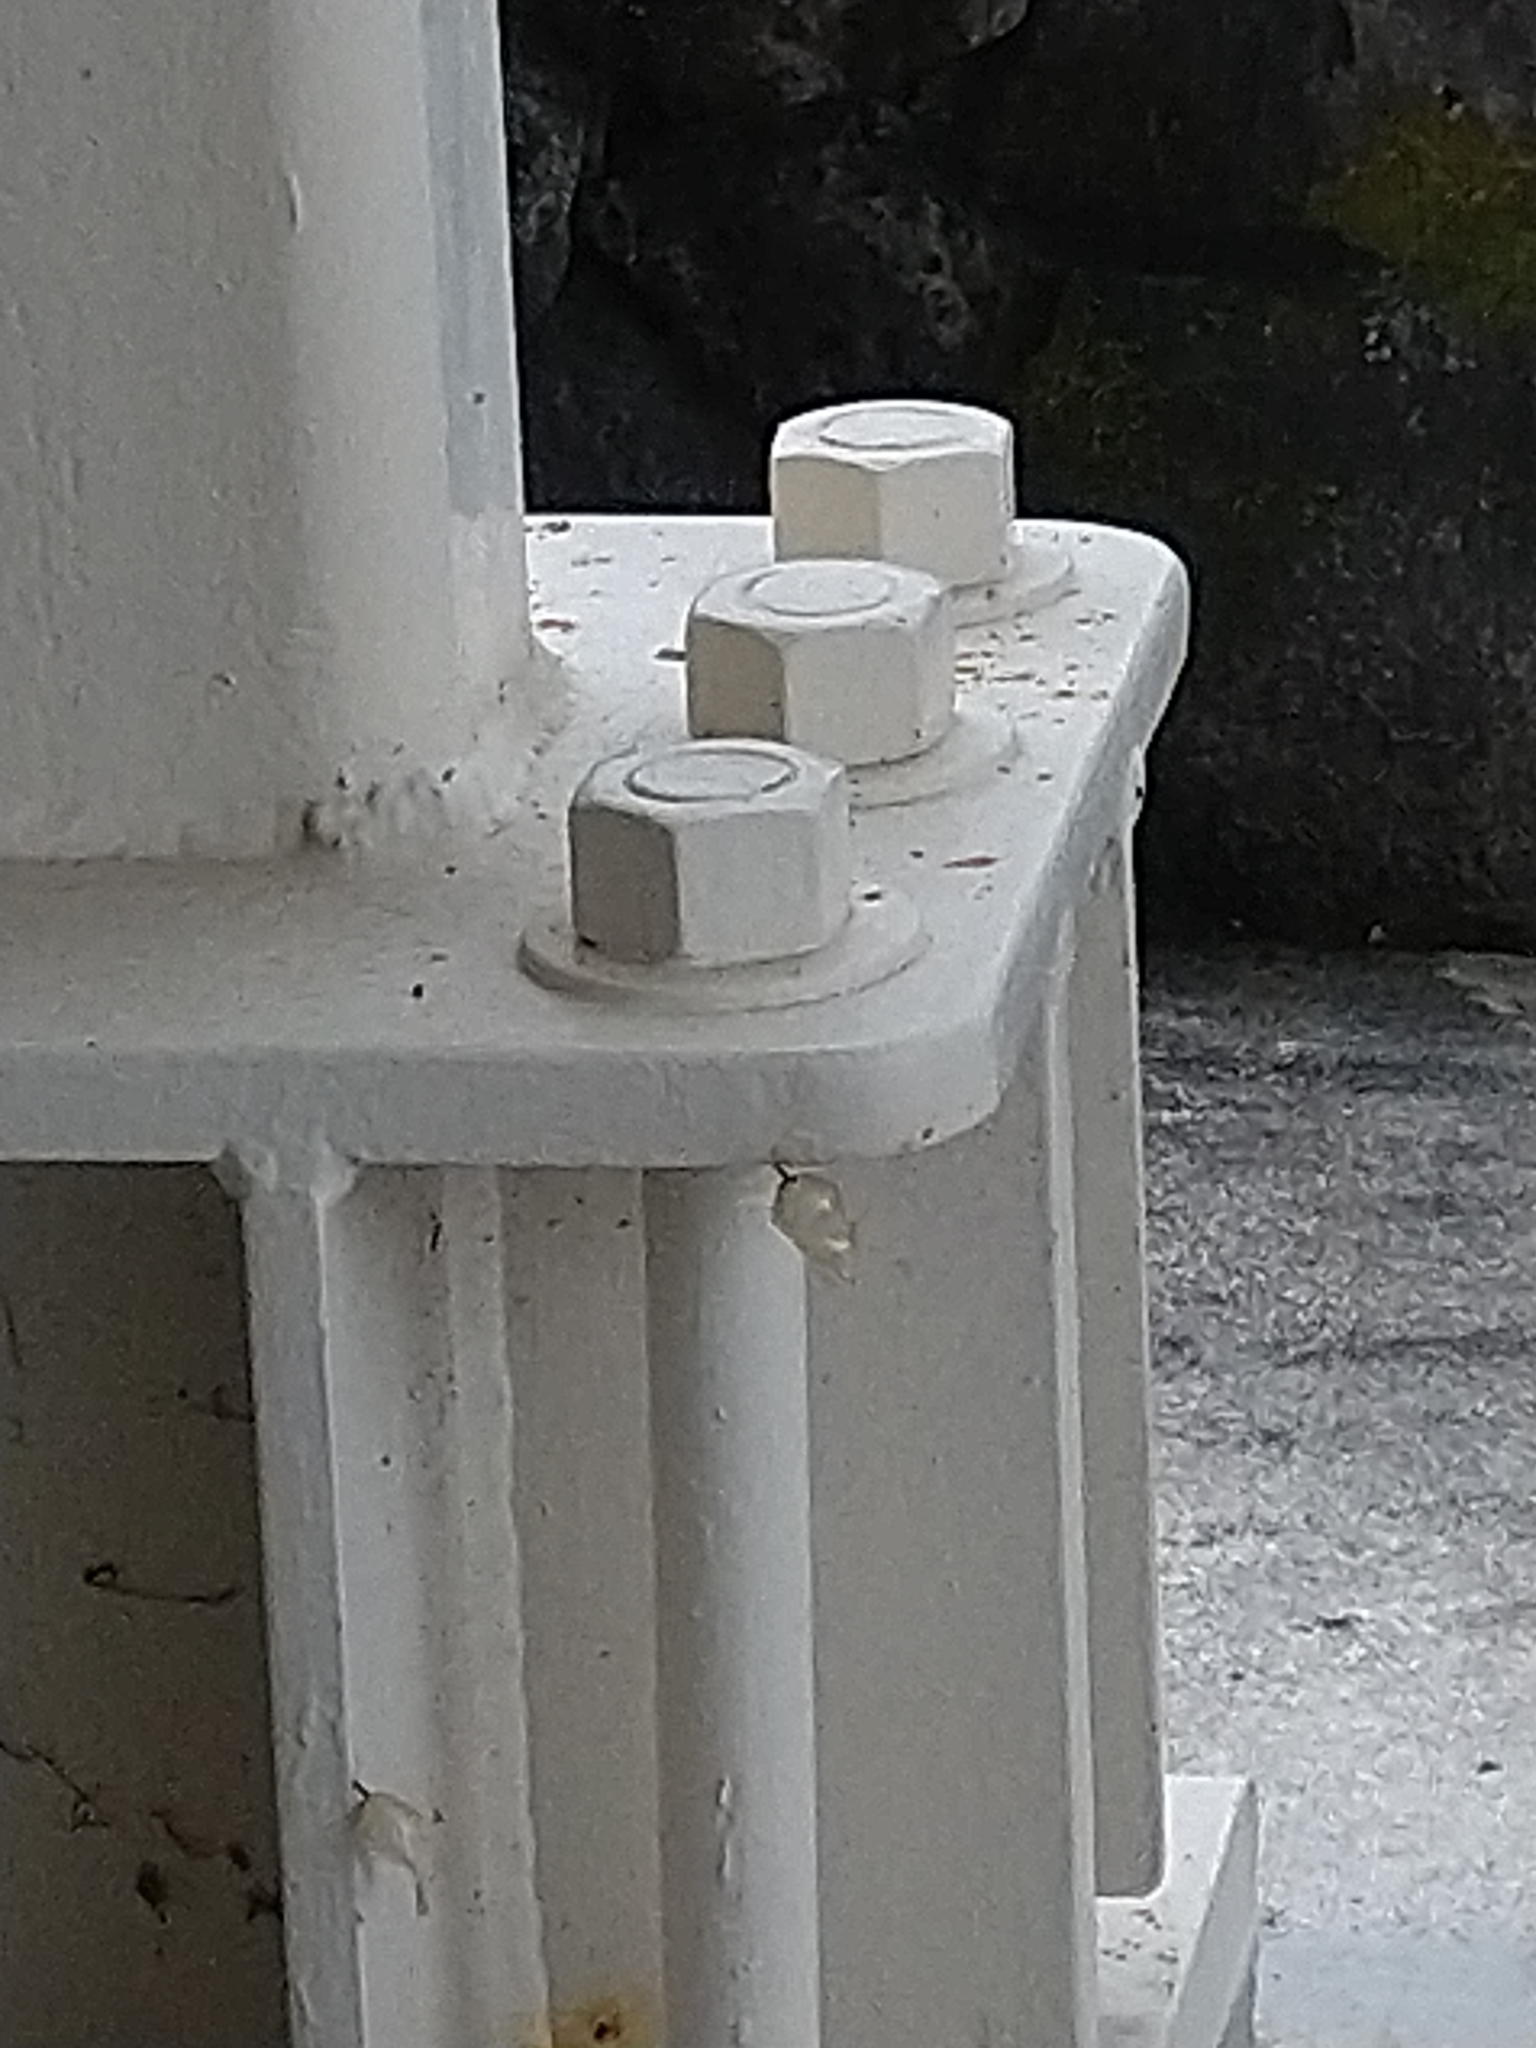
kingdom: Animalia
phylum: Arthropoda
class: Insecta
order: Lepidoptera
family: Nymphalidae
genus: Danaus
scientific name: Danaus plexippus
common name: Monarch
